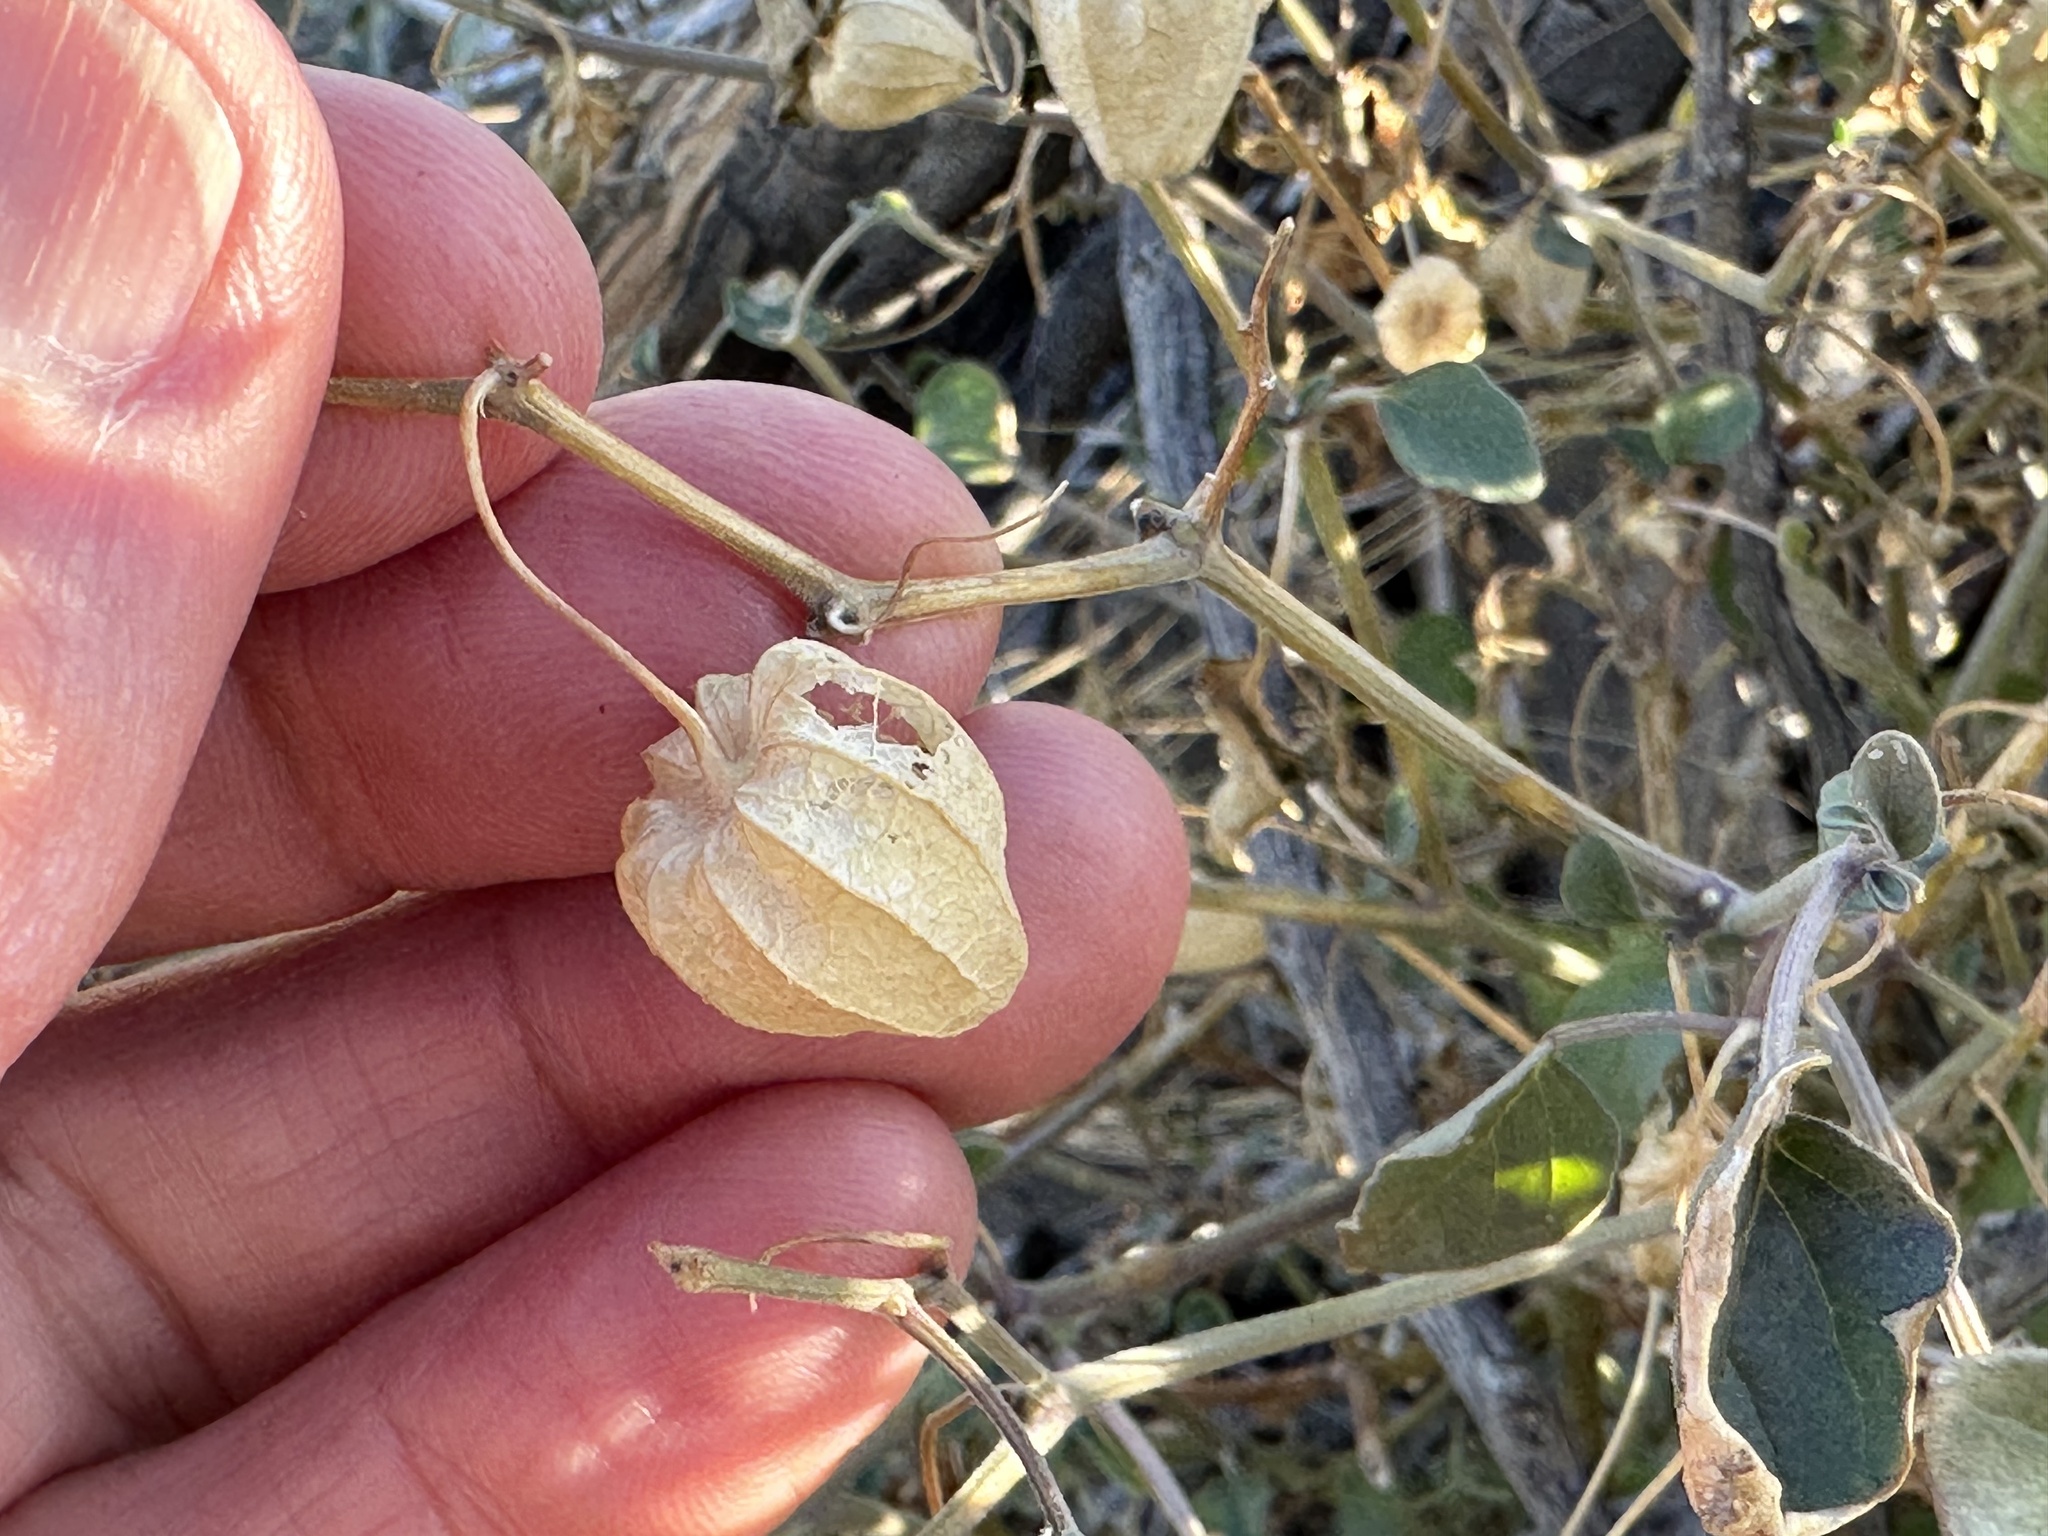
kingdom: Plantae
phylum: Tracheophyta
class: Magnoliopsida
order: Solanales
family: Solanaceae
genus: Physalis
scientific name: Physalis crassifolia
